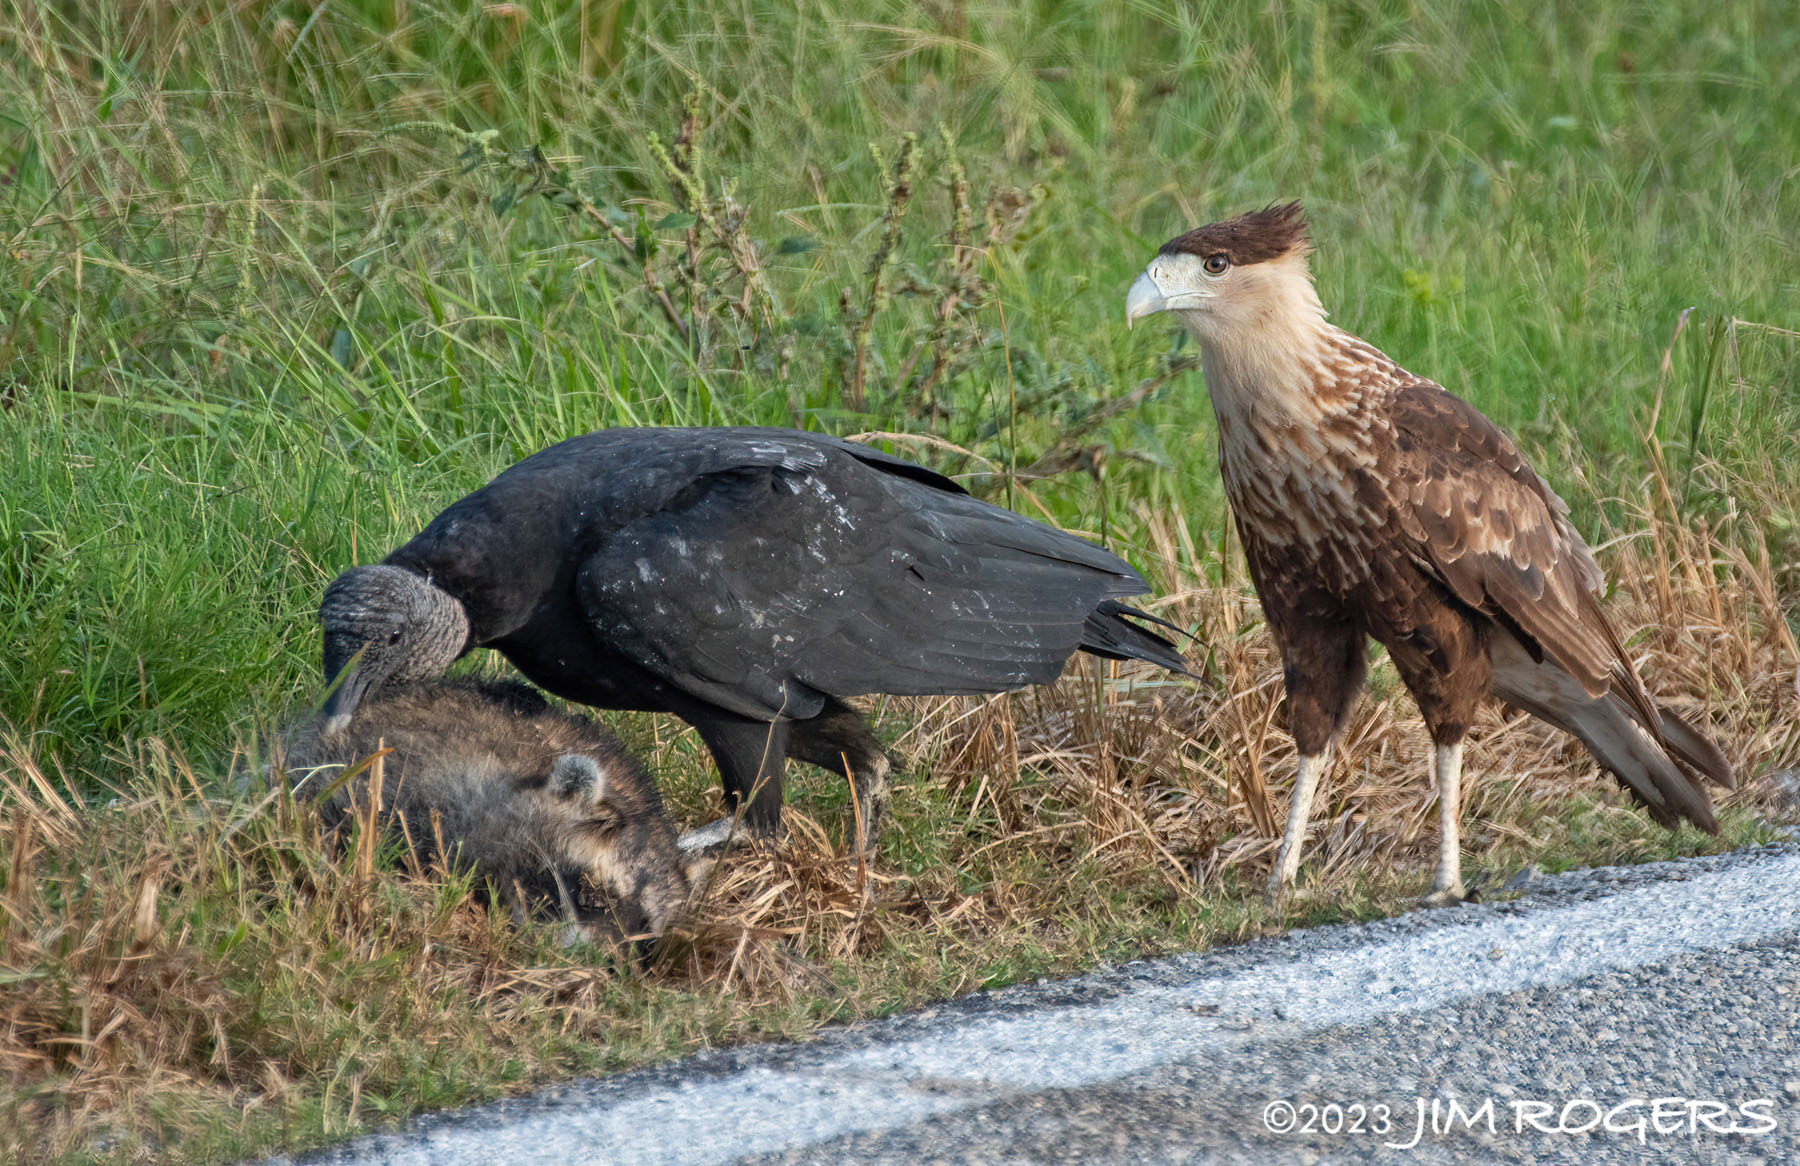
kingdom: Animalia
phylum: Chordata
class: Aves
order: Falconiformes
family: Falconidae
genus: Caracara
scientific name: Caracara plancus
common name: Southern caracara
